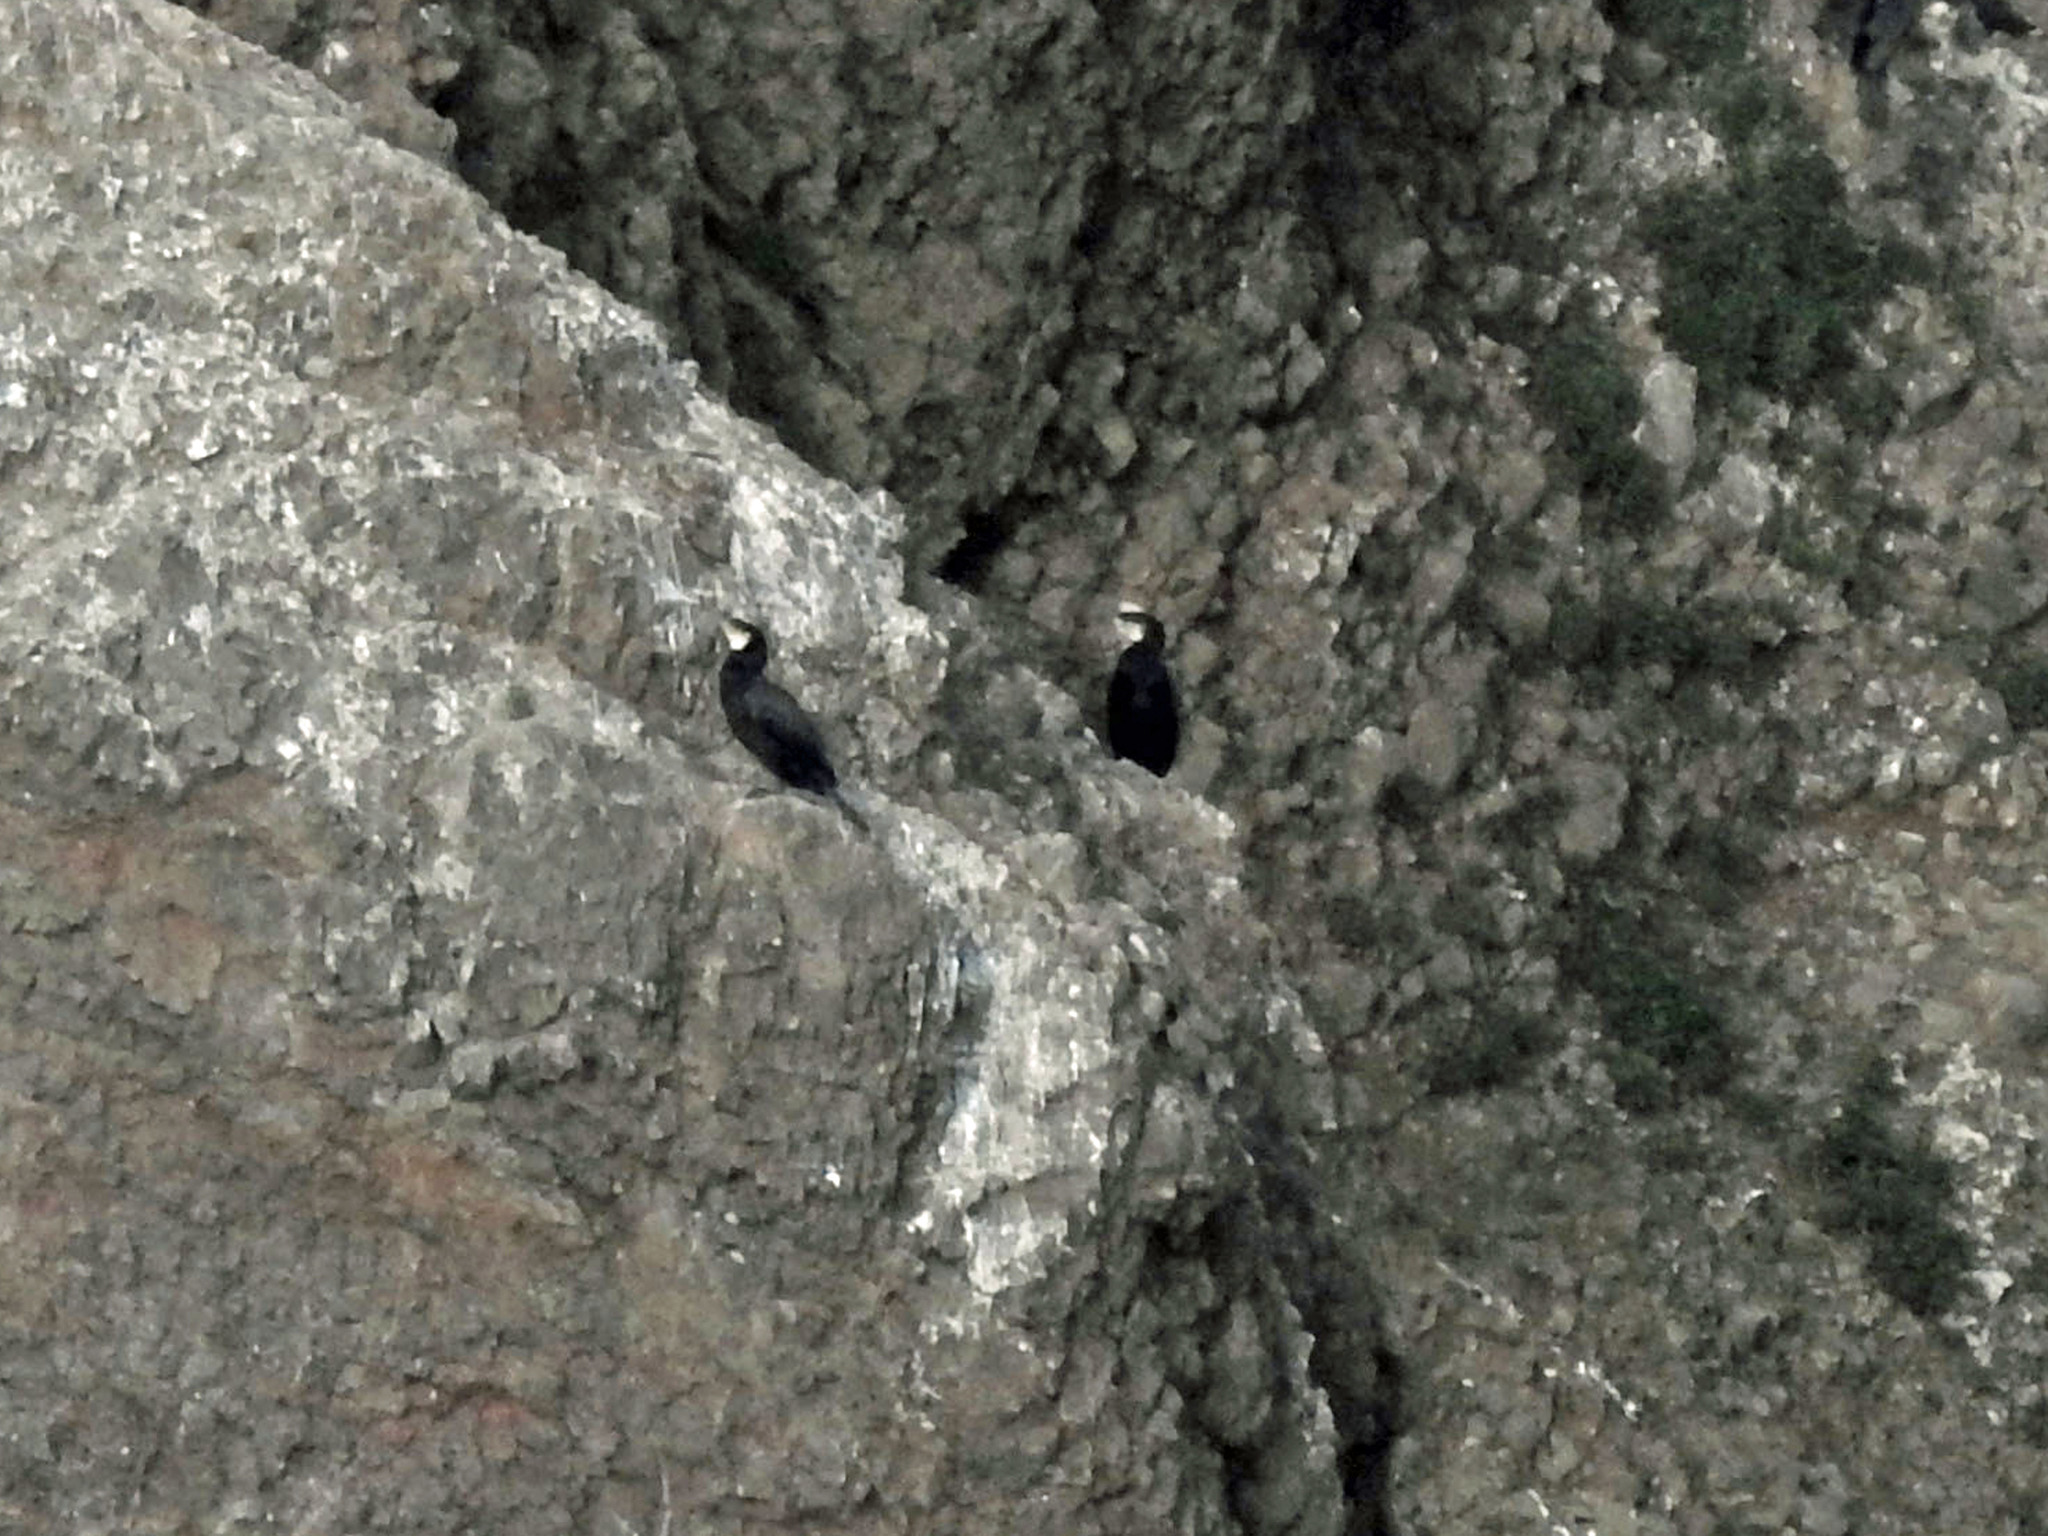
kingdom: Animalia
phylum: Chordata
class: Aves
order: Suliformes
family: Phalacrocoracidae
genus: Phalacrocorax
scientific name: Phalacrocorax carbo
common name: Great cormorant
